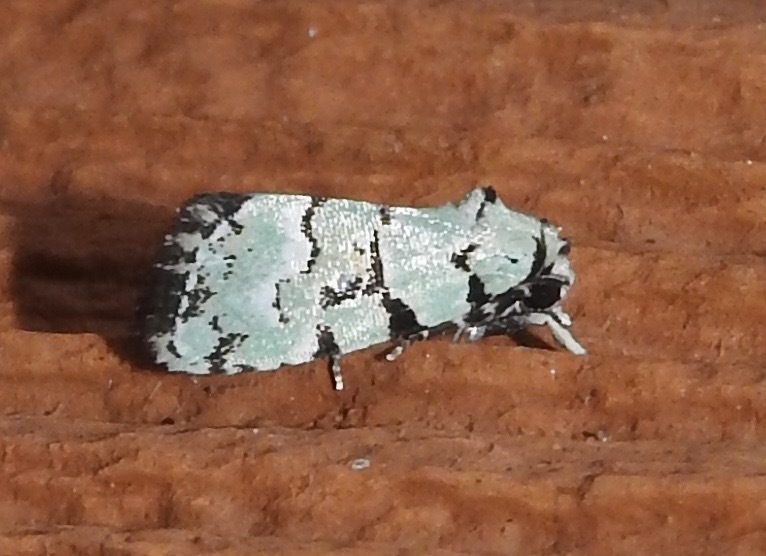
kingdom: Animalia
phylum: Arthropoda
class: Insecta
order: Lepidoptera
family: Noctuidae
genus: Elaphria
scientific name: Elaphria cyanympha
